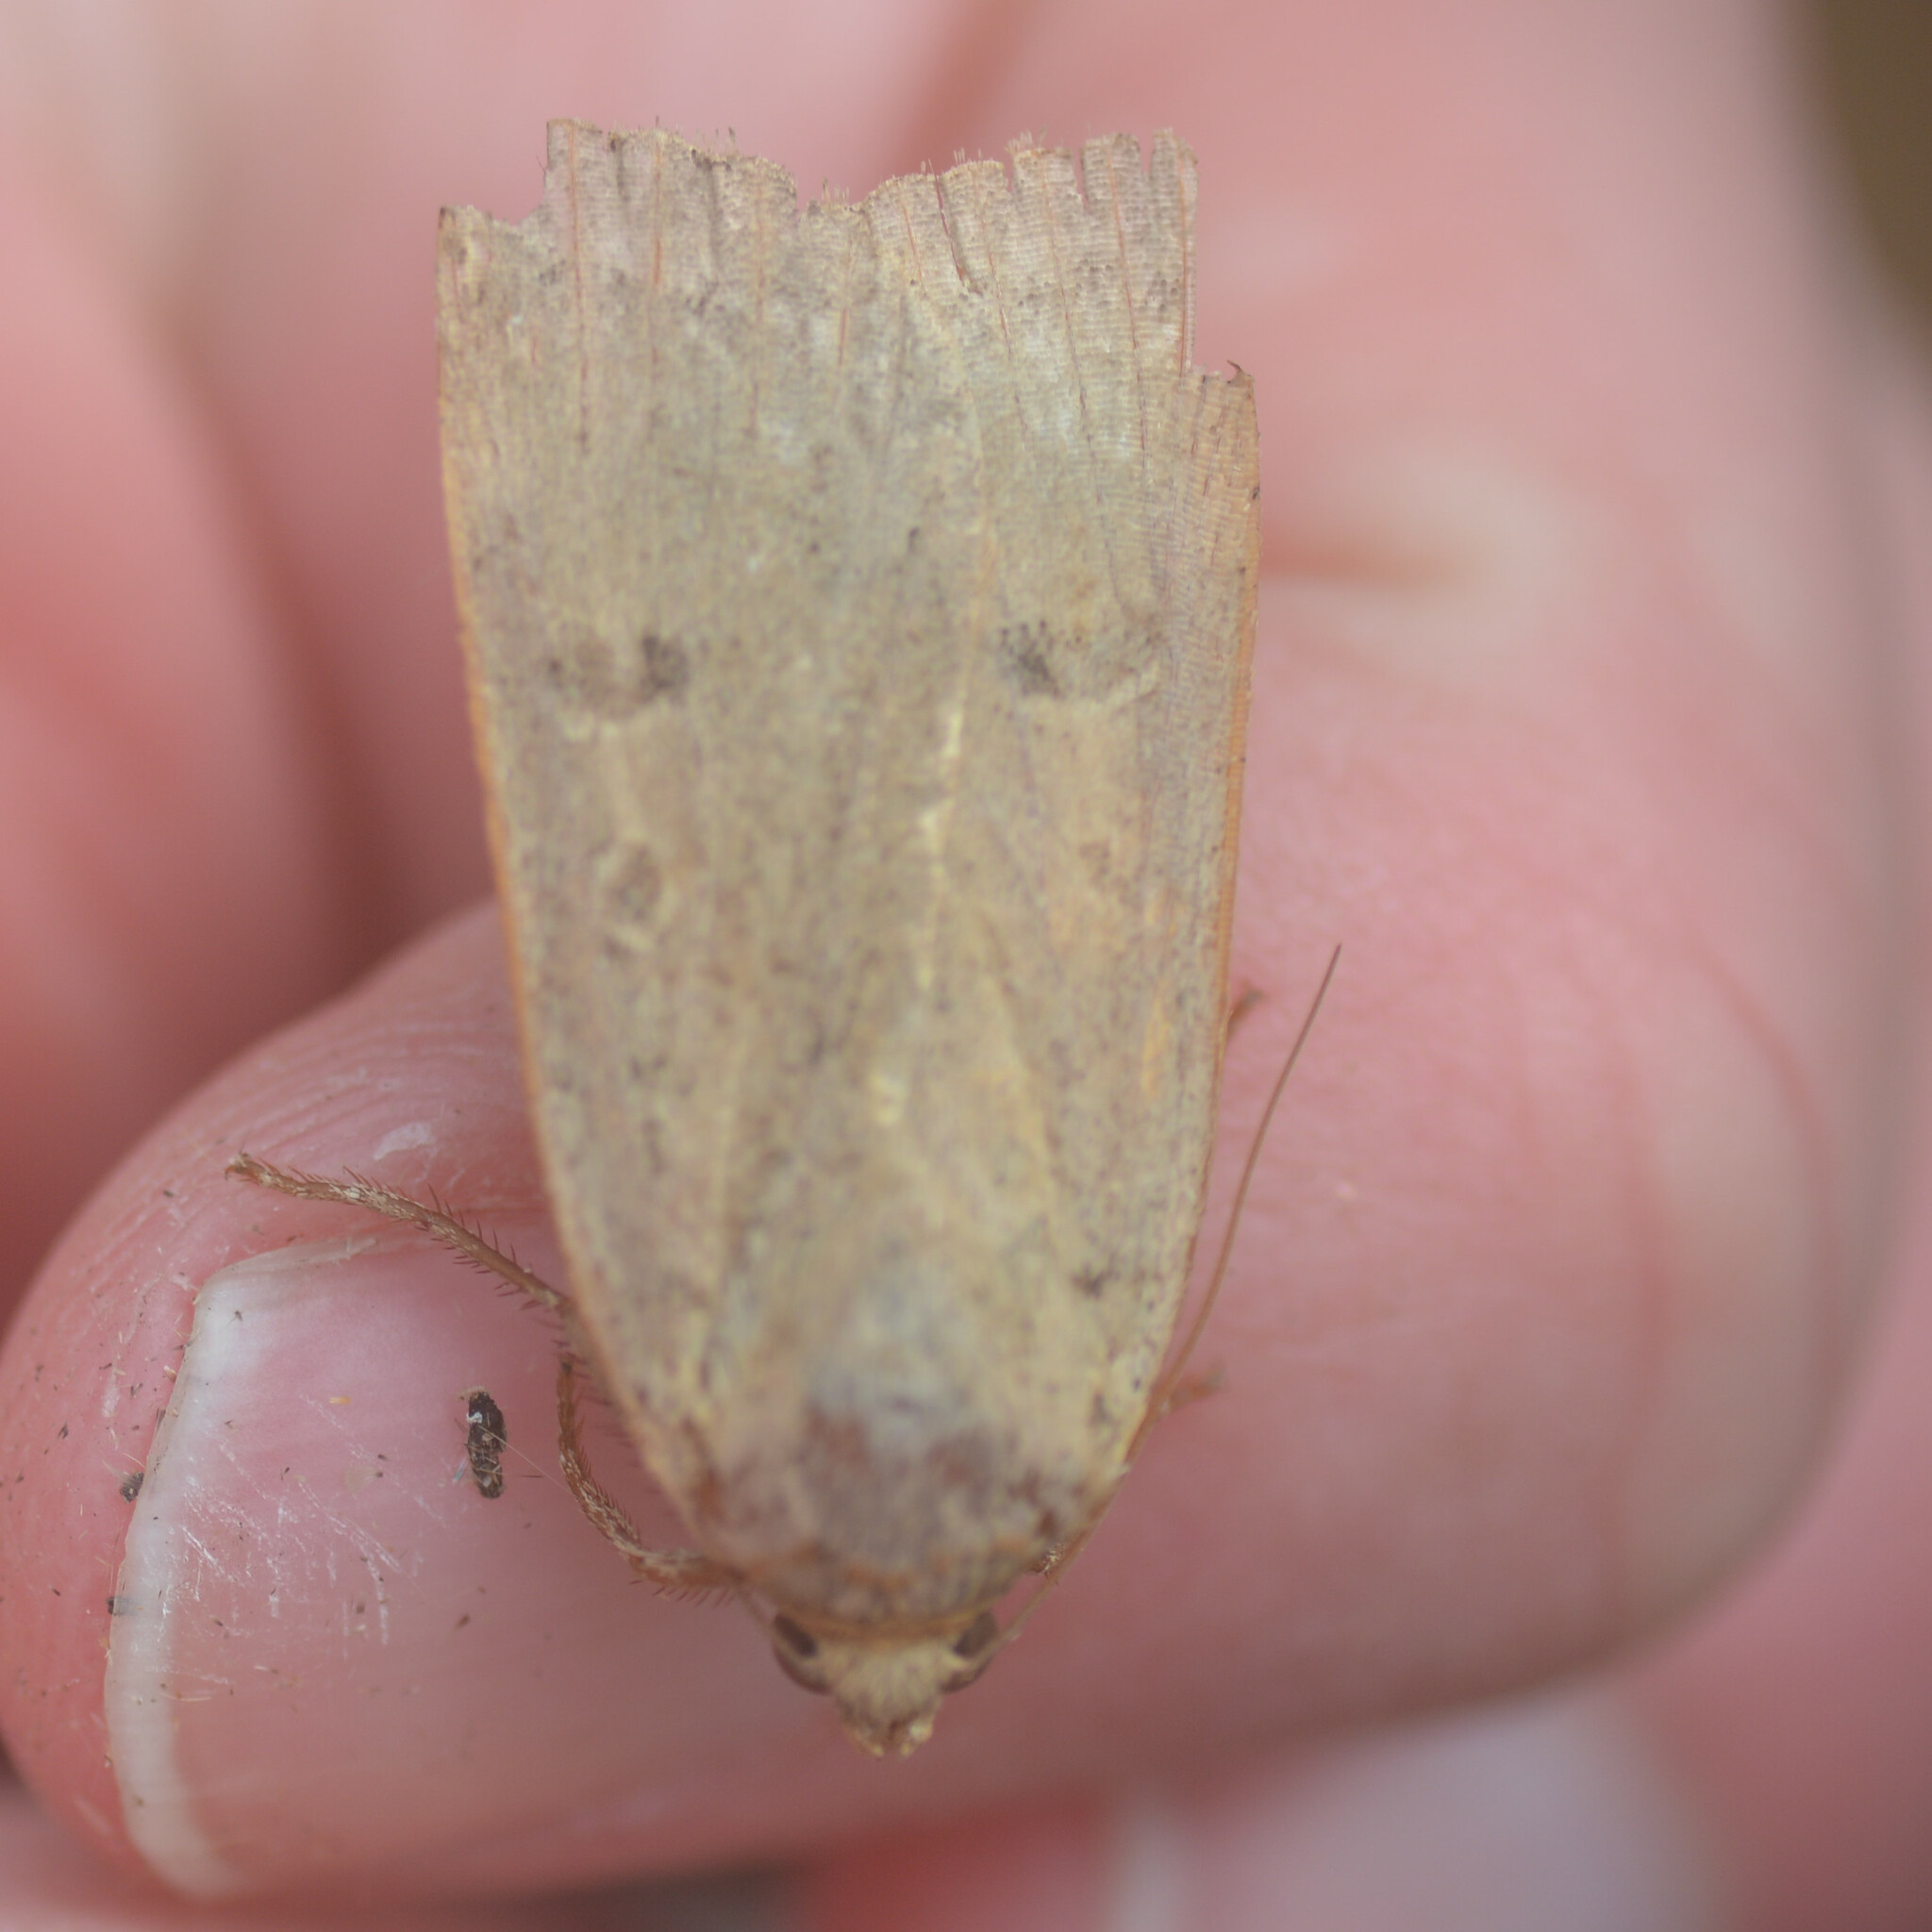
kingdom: Animalia
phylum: Arthropoda
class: Insecta
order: Lepidoptera
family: Noctuidae
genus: Noctua
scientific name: Noctua comes
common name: Lesser yellow underwing
